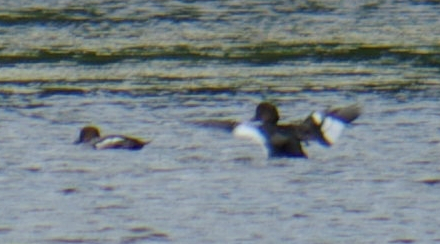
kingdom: Animalia
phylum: Chordata
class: Aves
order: Anseriformes
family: Anatidae
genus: Bucephala
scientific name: Bucephala clangula
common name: Common goldeneye
